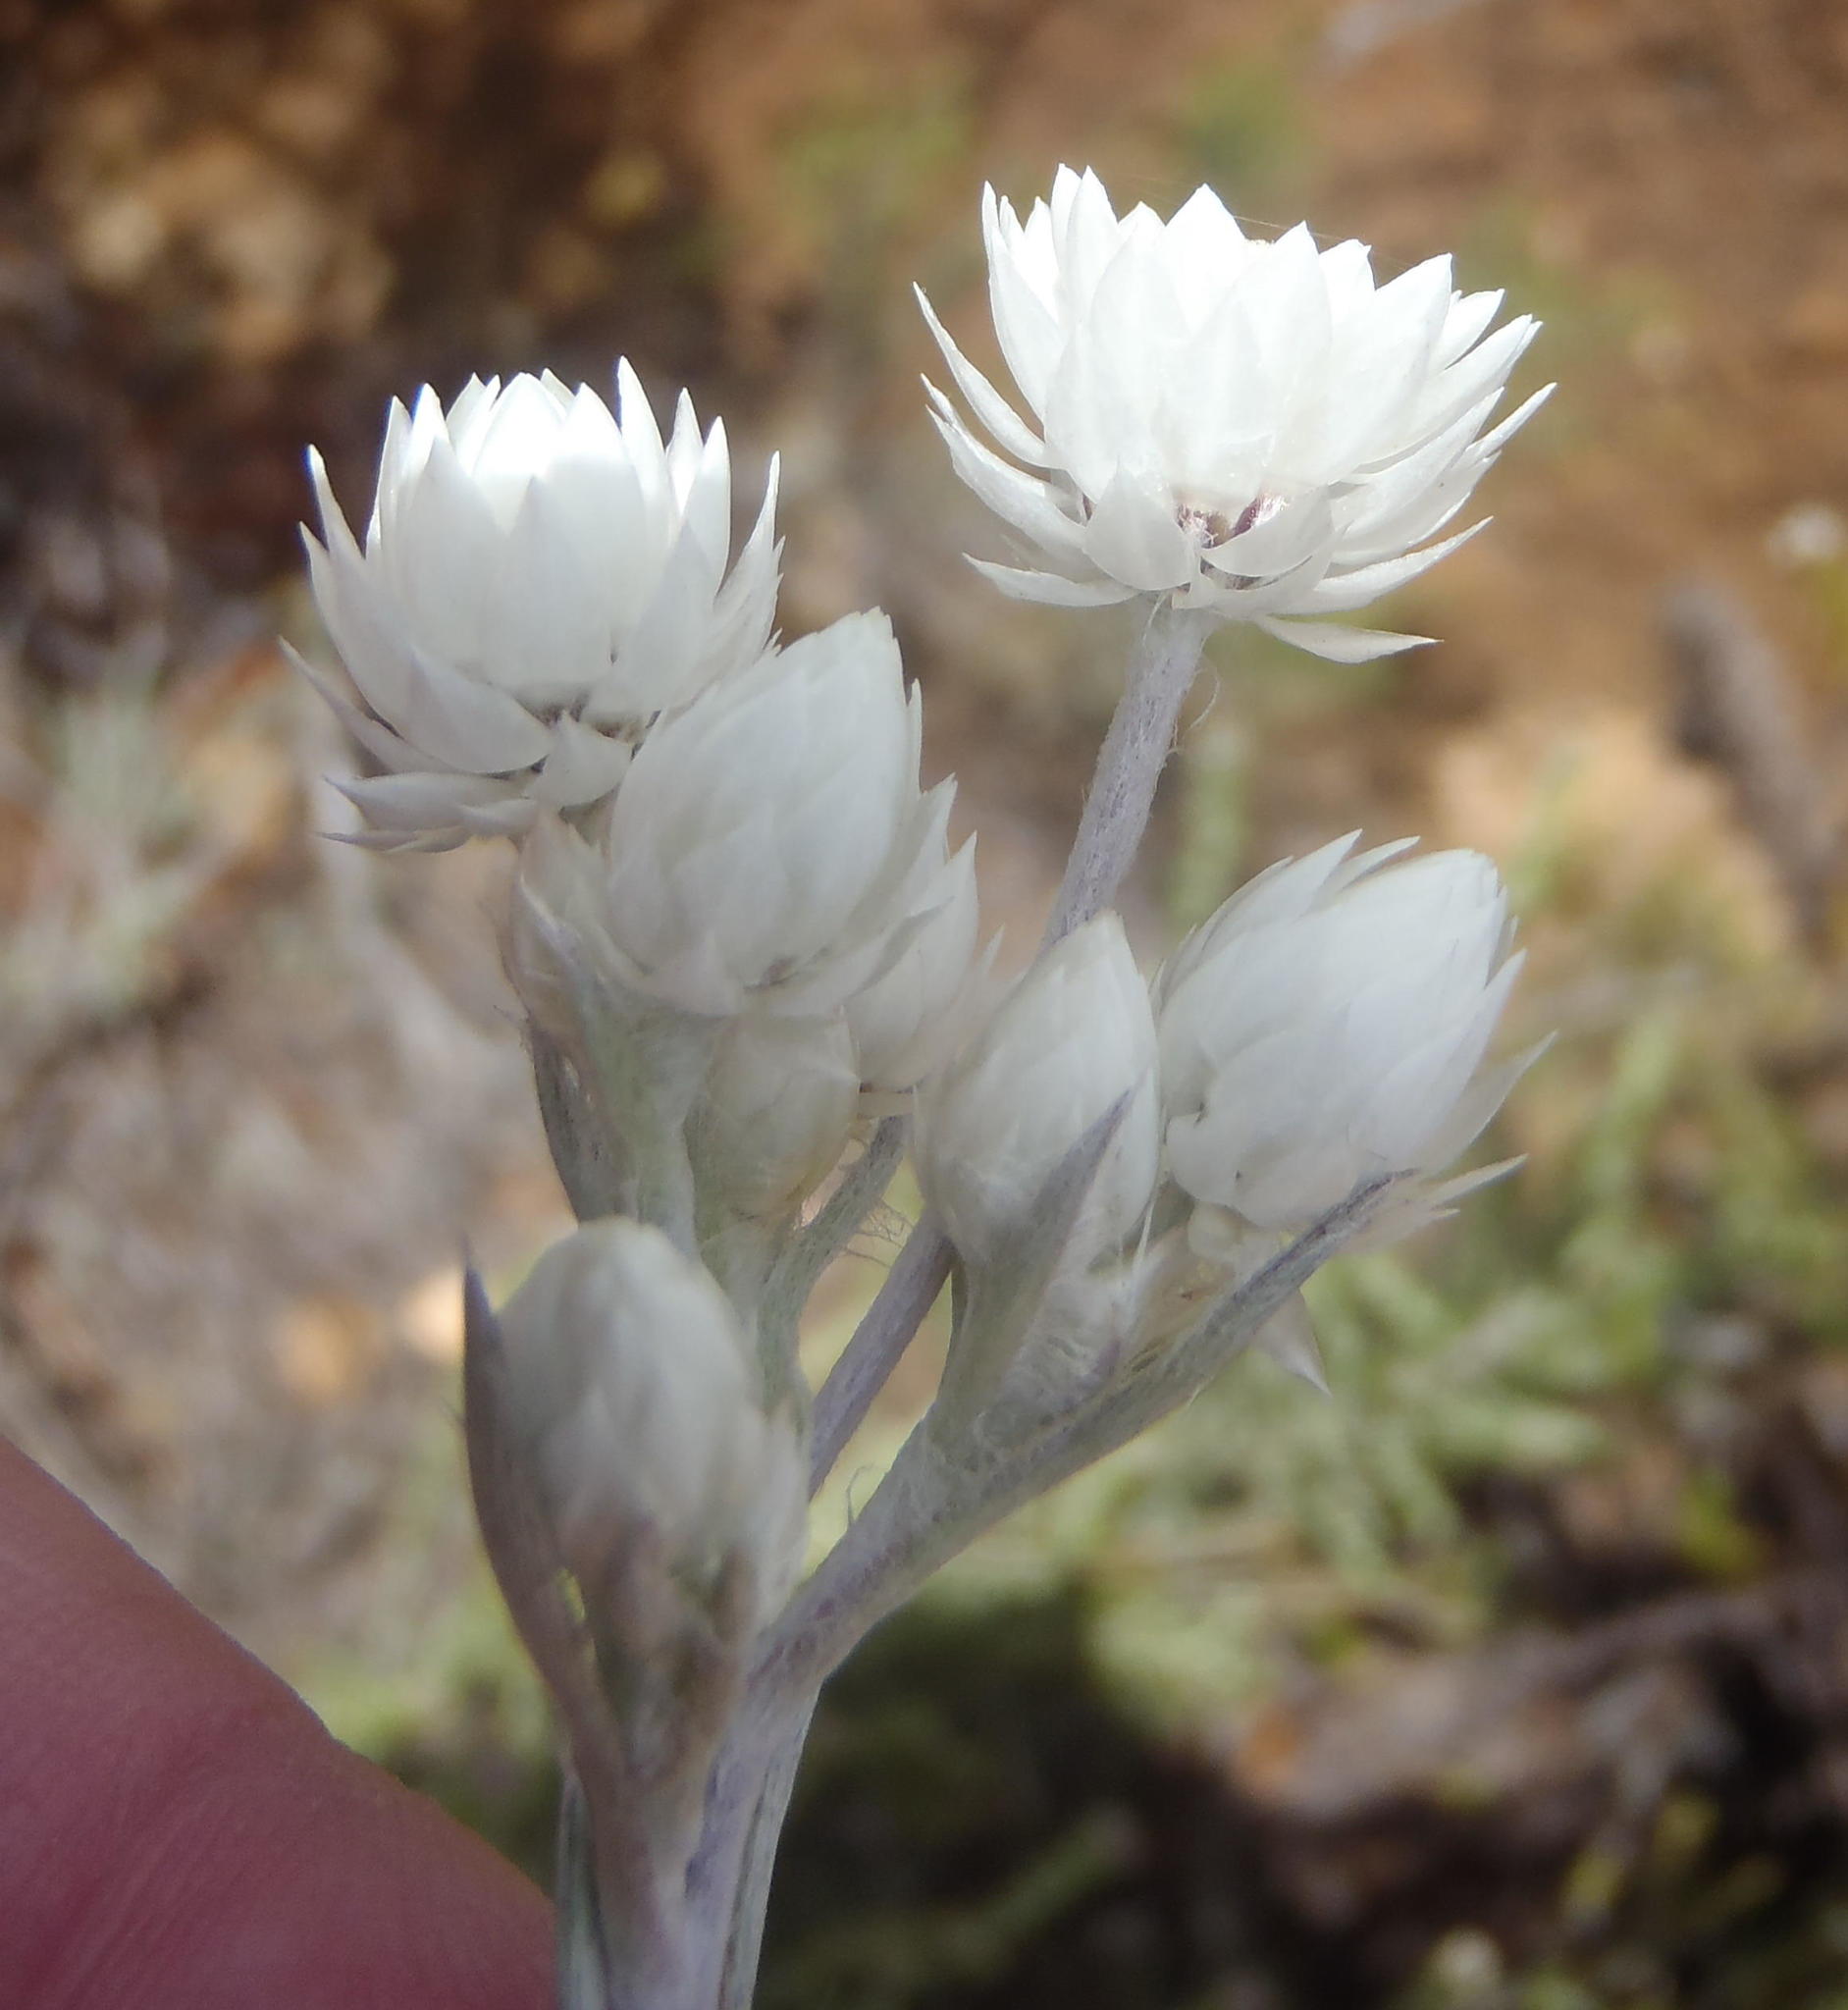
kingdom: Plantae
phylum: Tracheophyta
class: Magnoliopsida
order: Asterales
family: Asteraceae
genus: Achyranthemum
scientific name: Achyranthemum paniculatum
